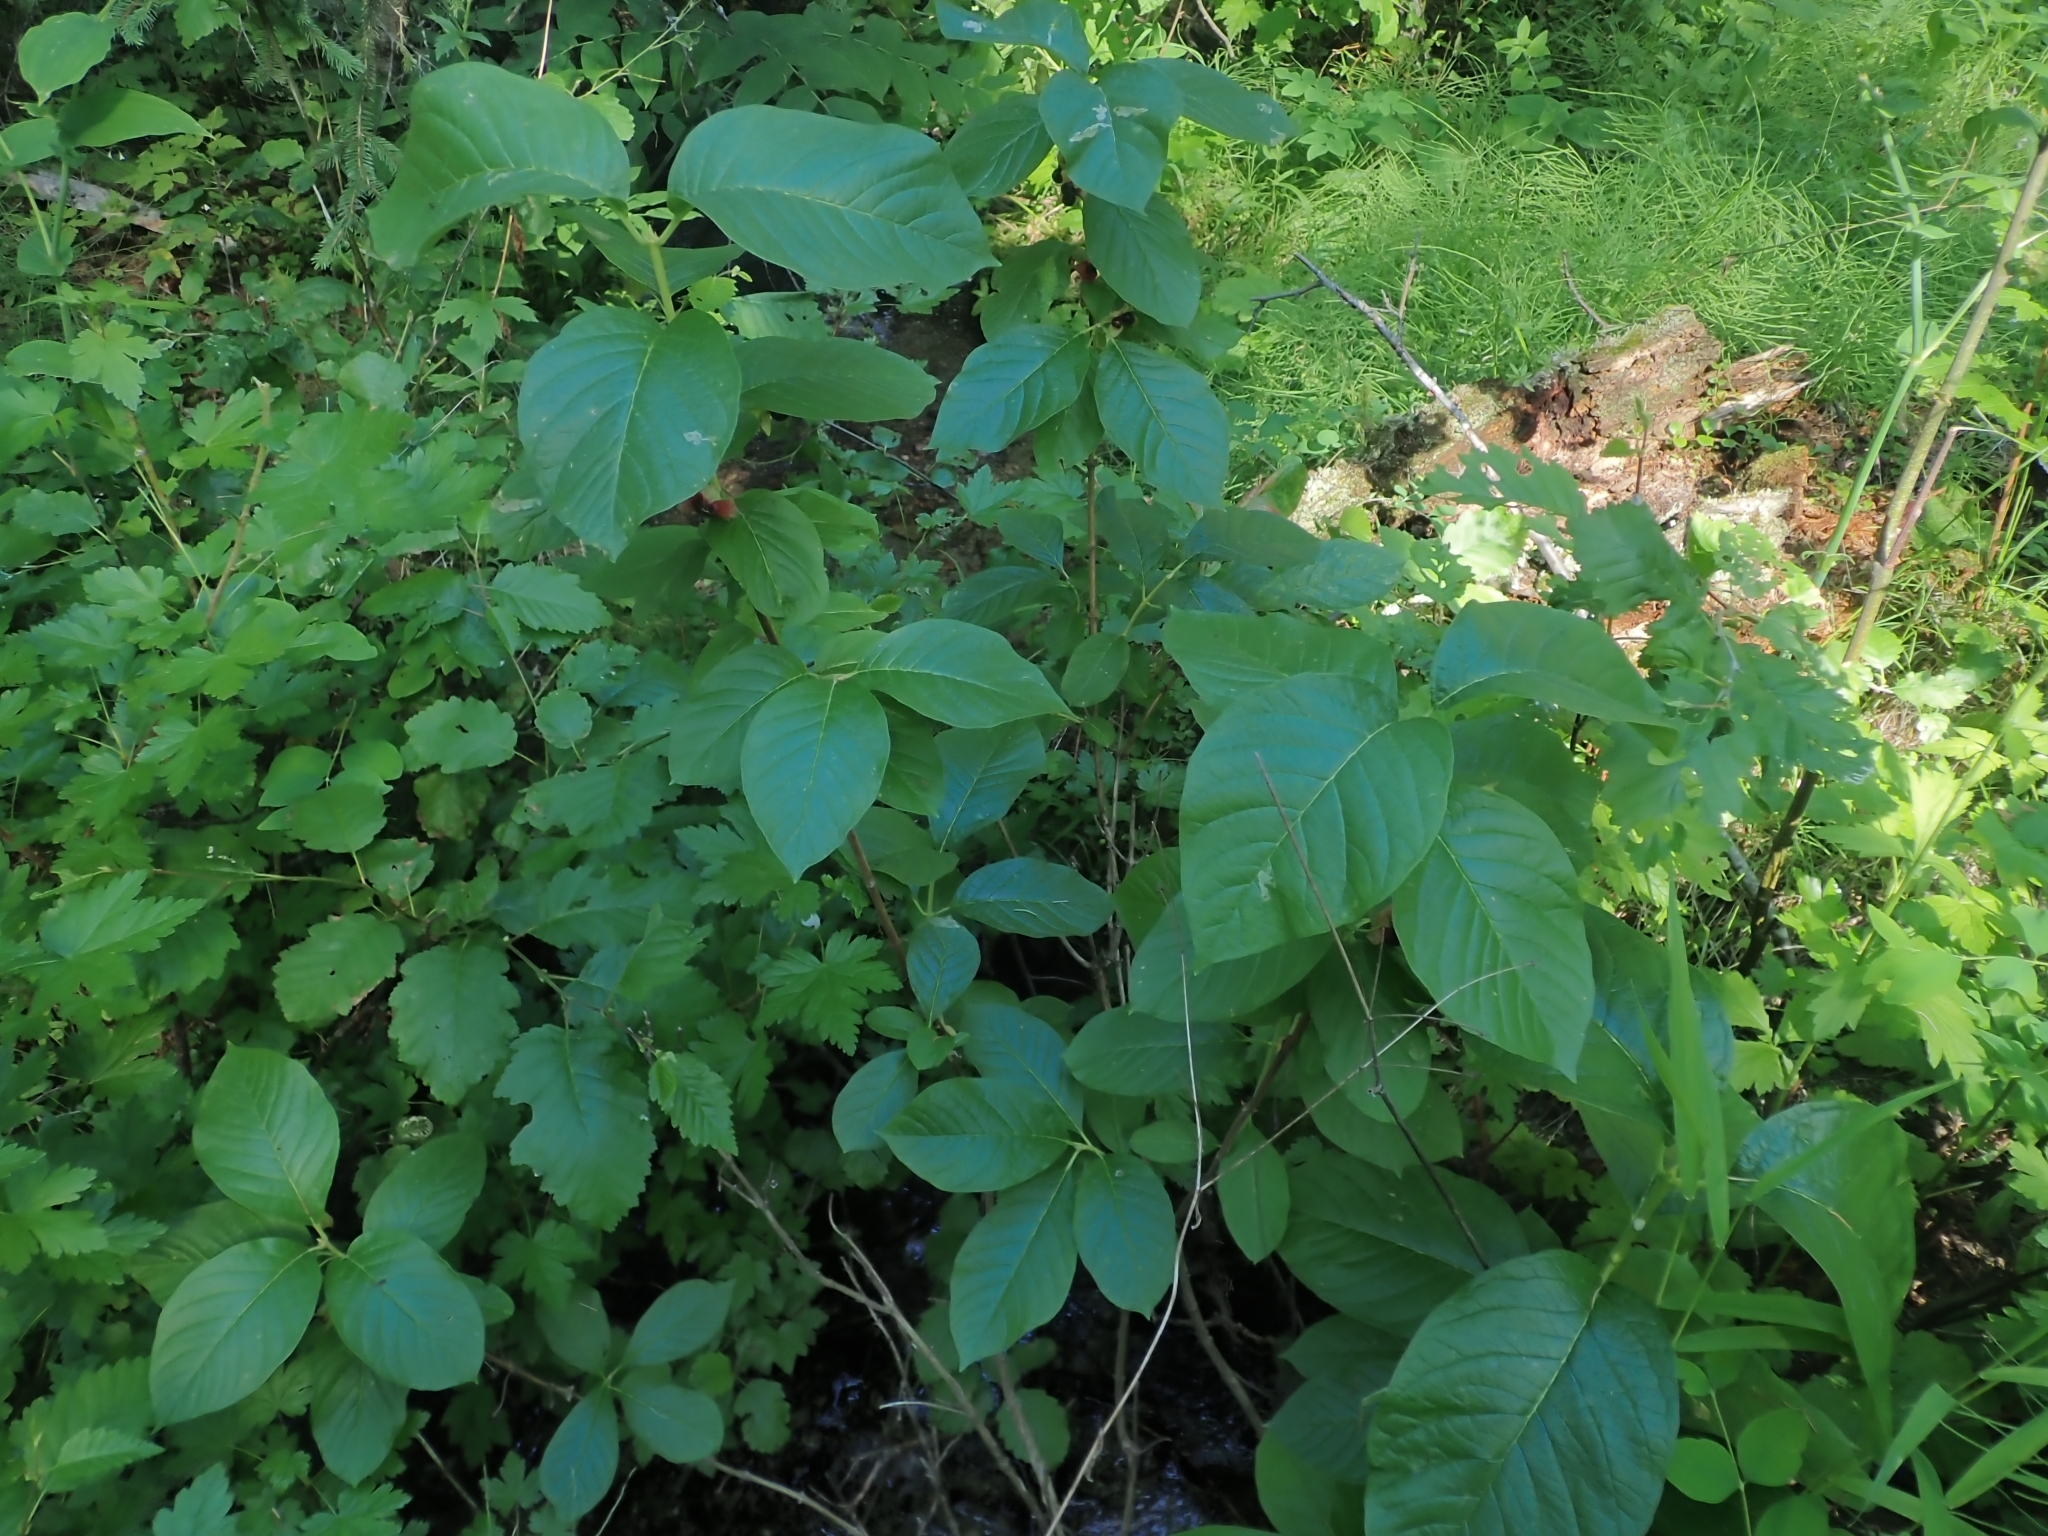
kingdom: Plantae
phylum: Tracheophyta
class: Magnoliopsida
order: Dipsacales
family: Caprifoliaceae
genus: Lonicera
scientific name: Lonicera involucrata
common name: Californian honeysuckle
